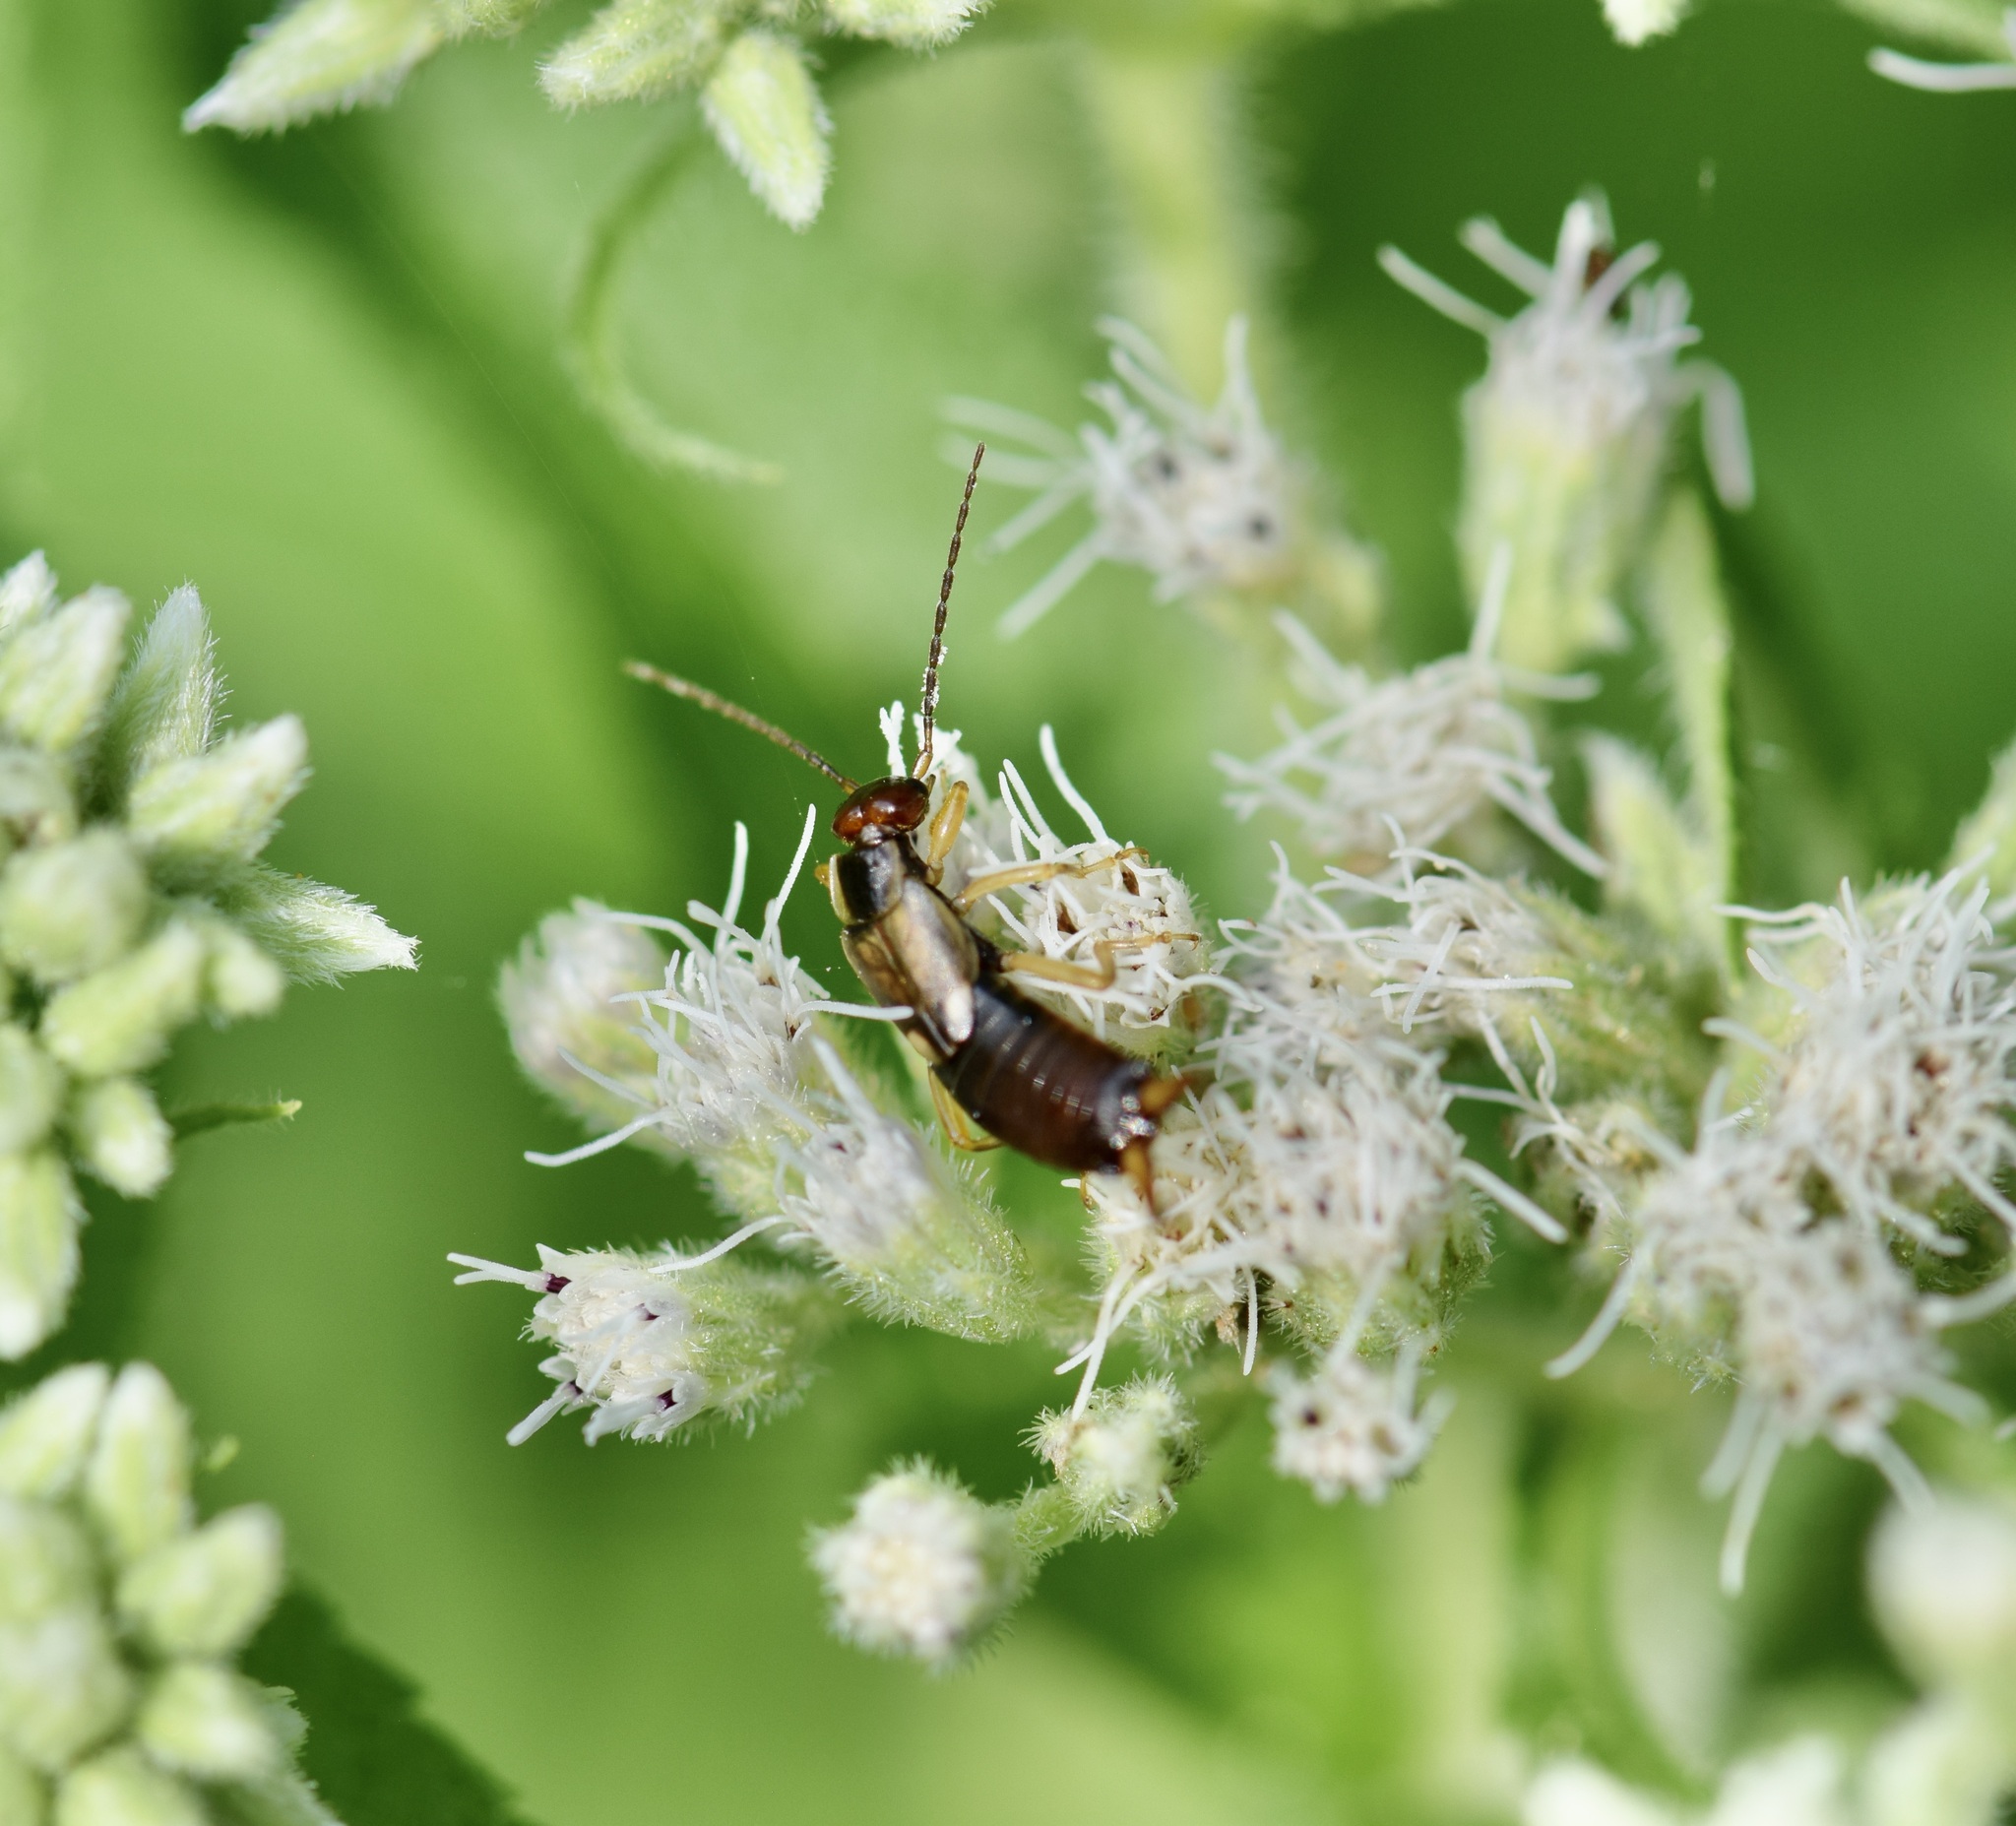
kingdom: Animalia
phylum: Arthropoda
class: Insecta
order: Dermaptera
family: Forficulidae
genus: Forficula
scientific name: Forficula
